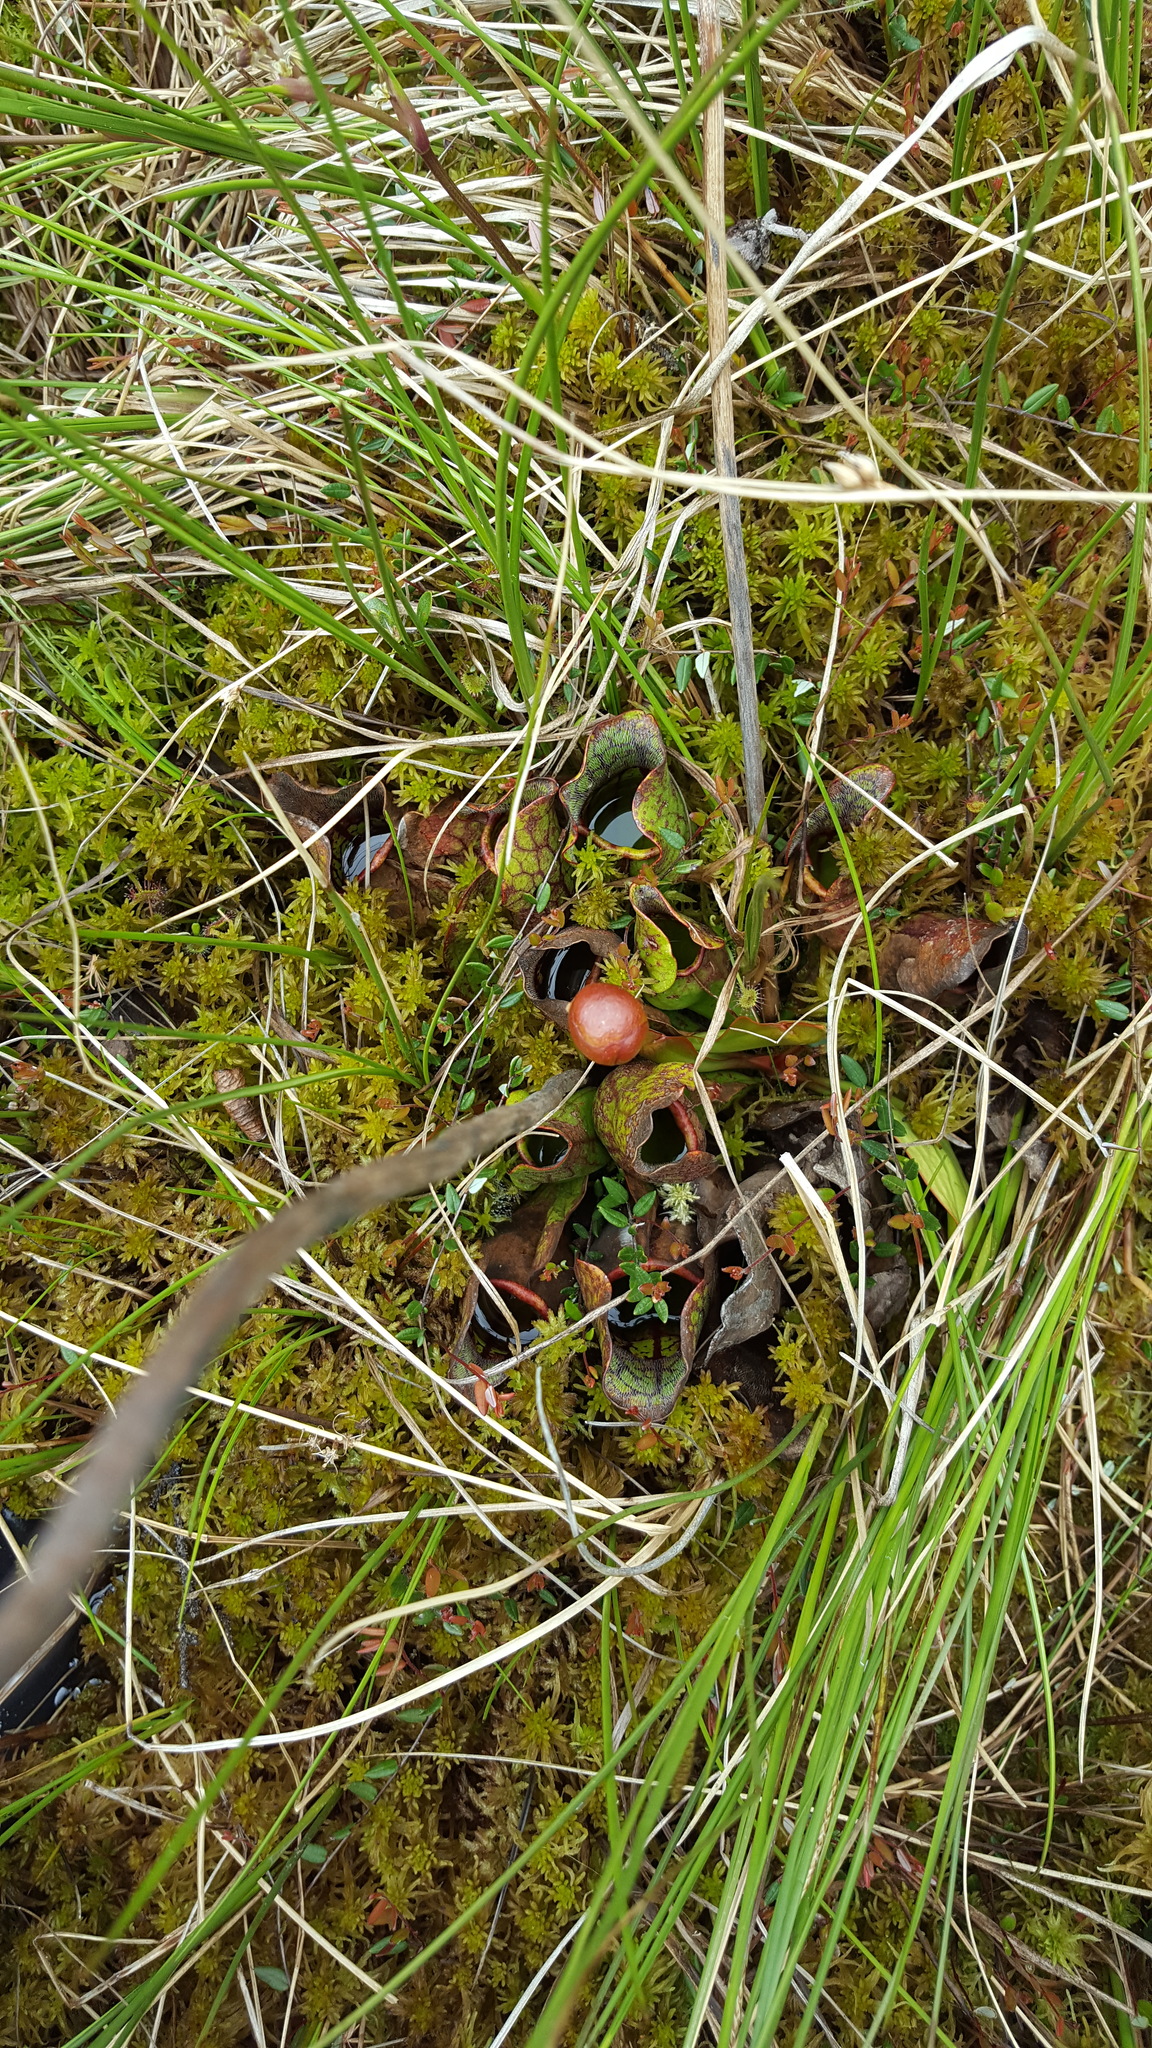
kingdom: Plantae
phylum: Tracheophyta
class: Magnoliopsida
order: Ericales
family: Sarraceniaceae
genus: Sarracenia
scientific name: Sarracenia purpurea
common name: Pitcherplant
